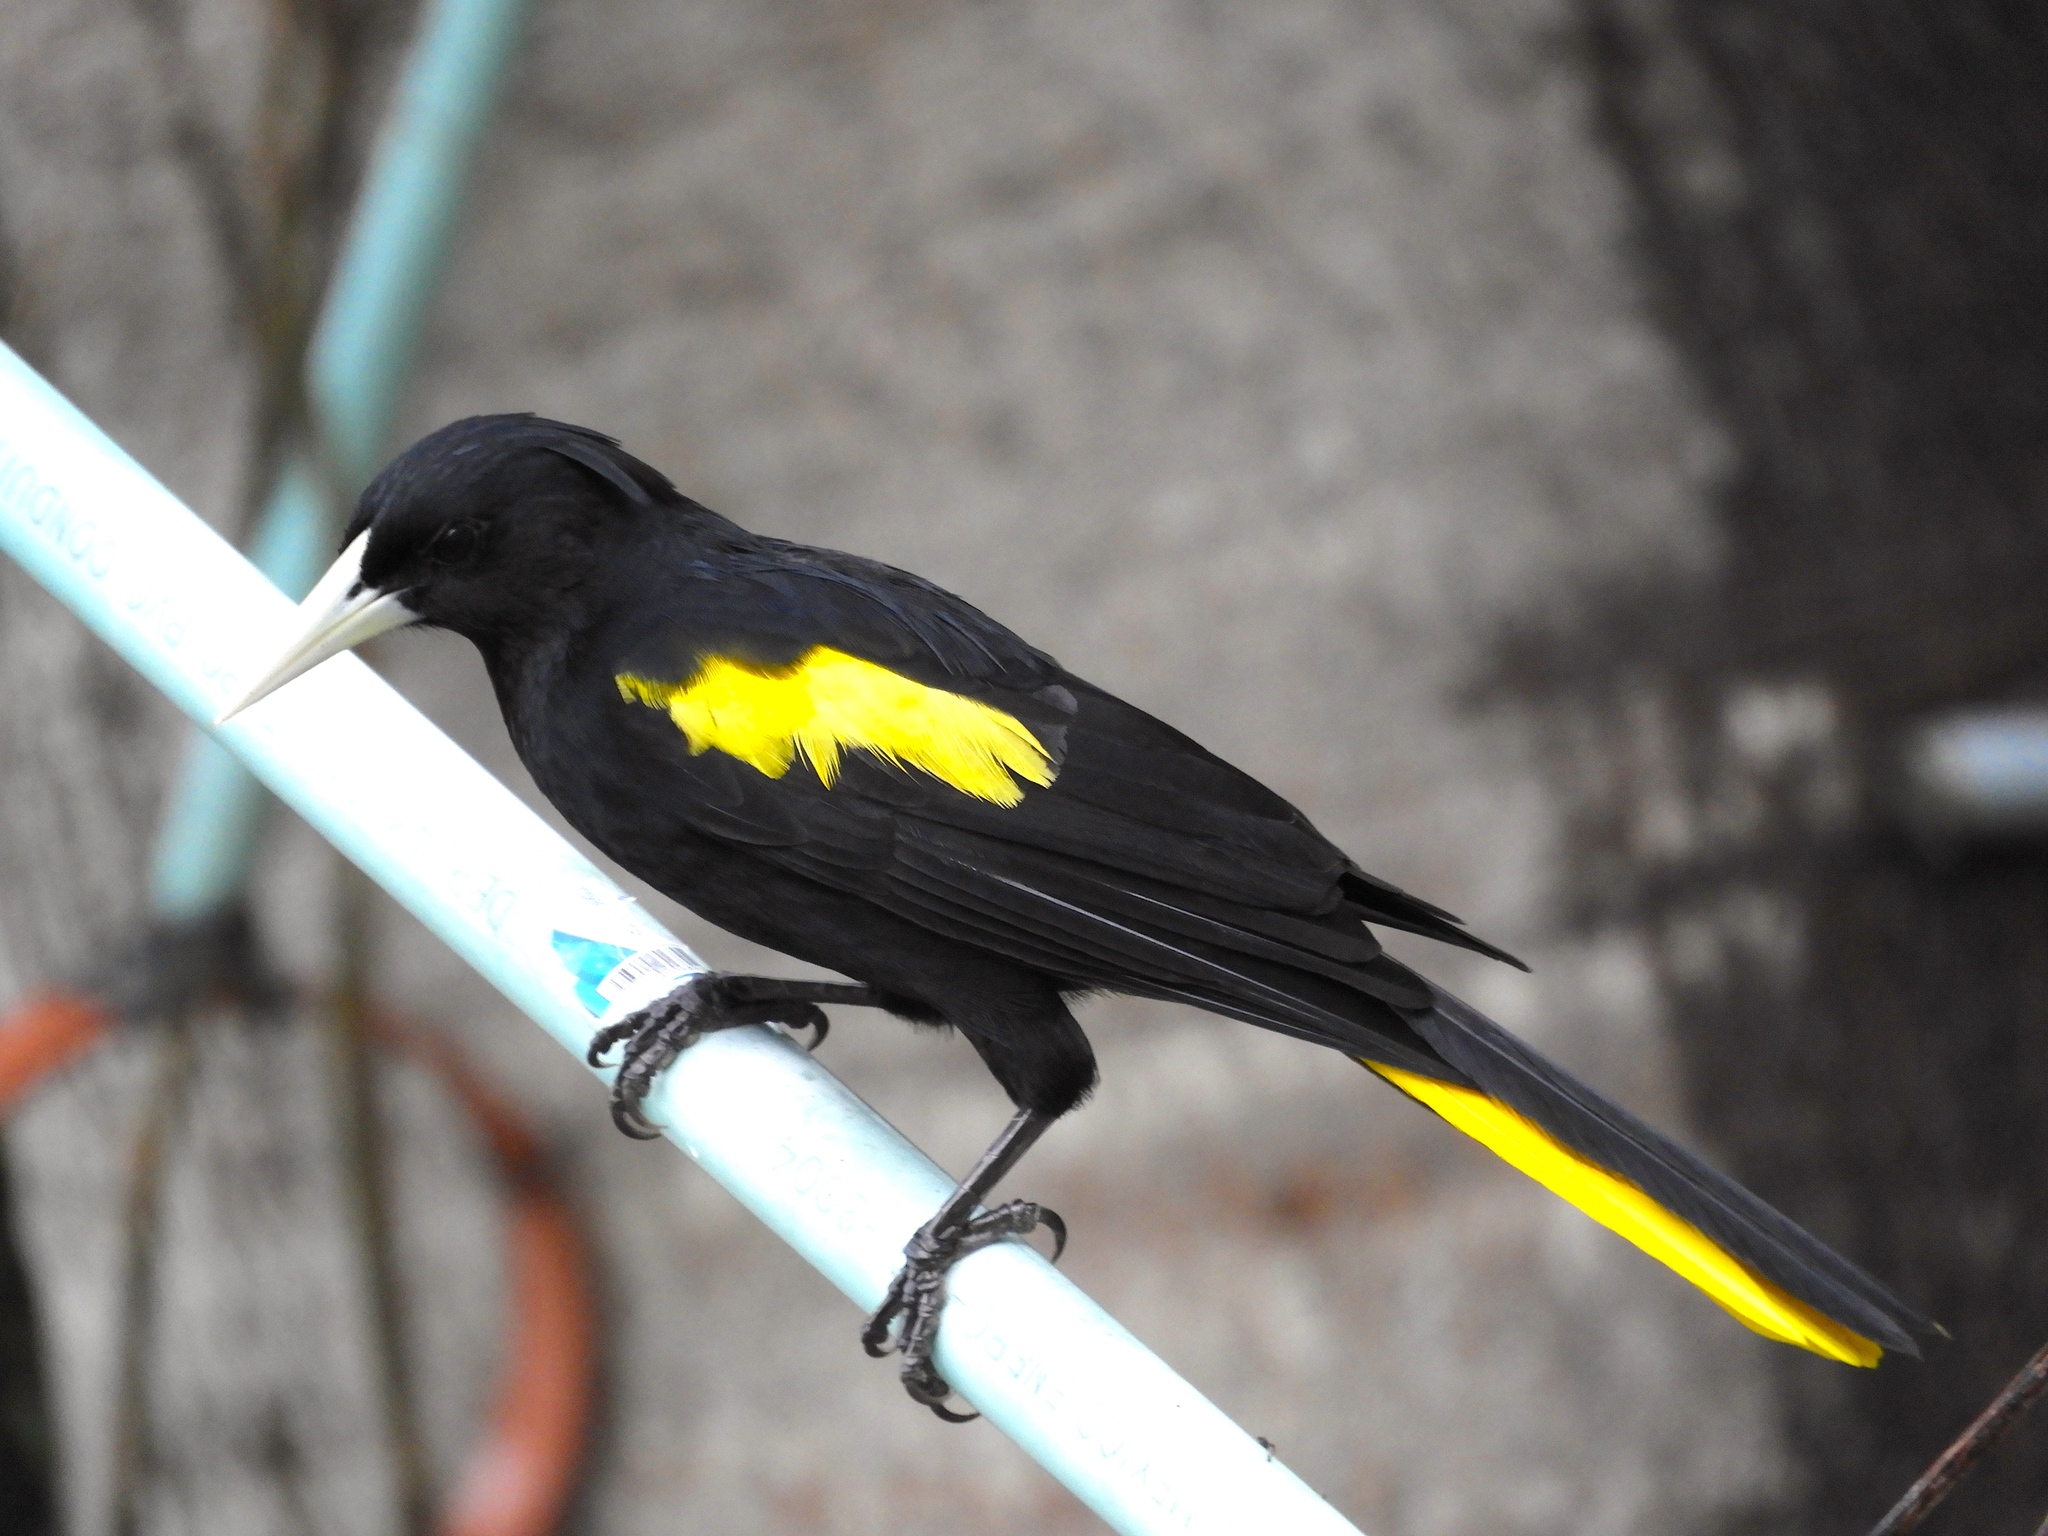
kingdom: Animalia
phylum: Chordata
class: Aves
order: Passeriformes
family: Icteridae
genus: Cacicus
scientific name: Cacicus melanicterus
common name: Yellow-winged cacique
